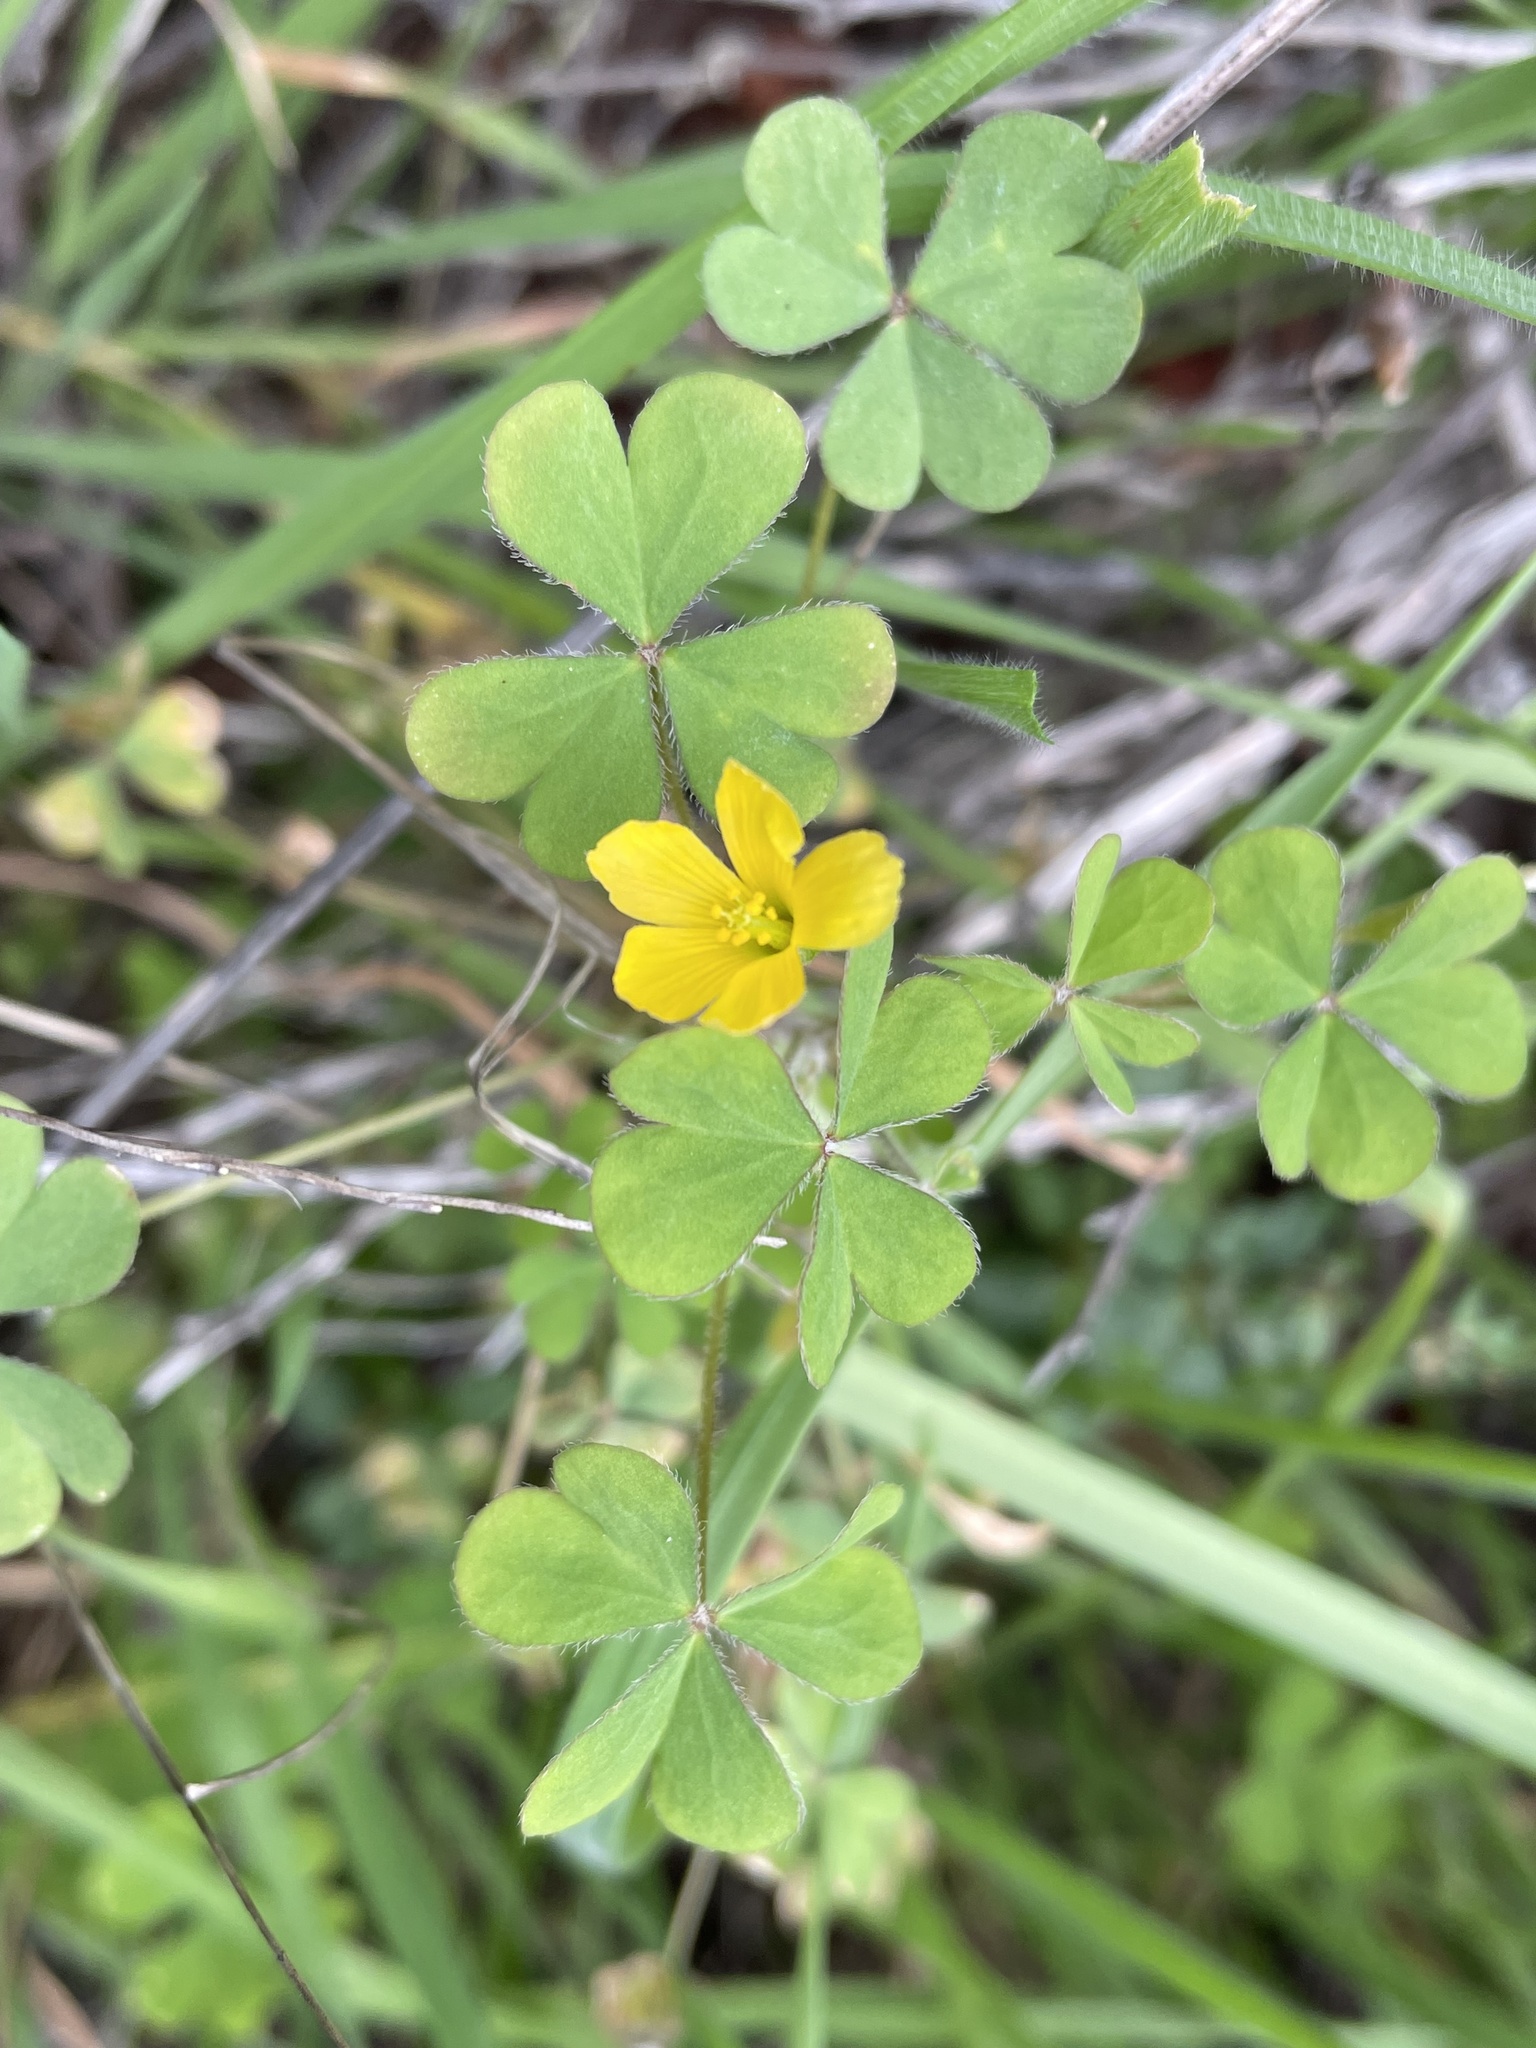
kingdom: Plantae
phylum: Tracheophyta
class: Magnoliopsida
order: Oxalidales
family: Oxalidaceae
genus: Oxalis
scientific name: Oxalis pilosa
